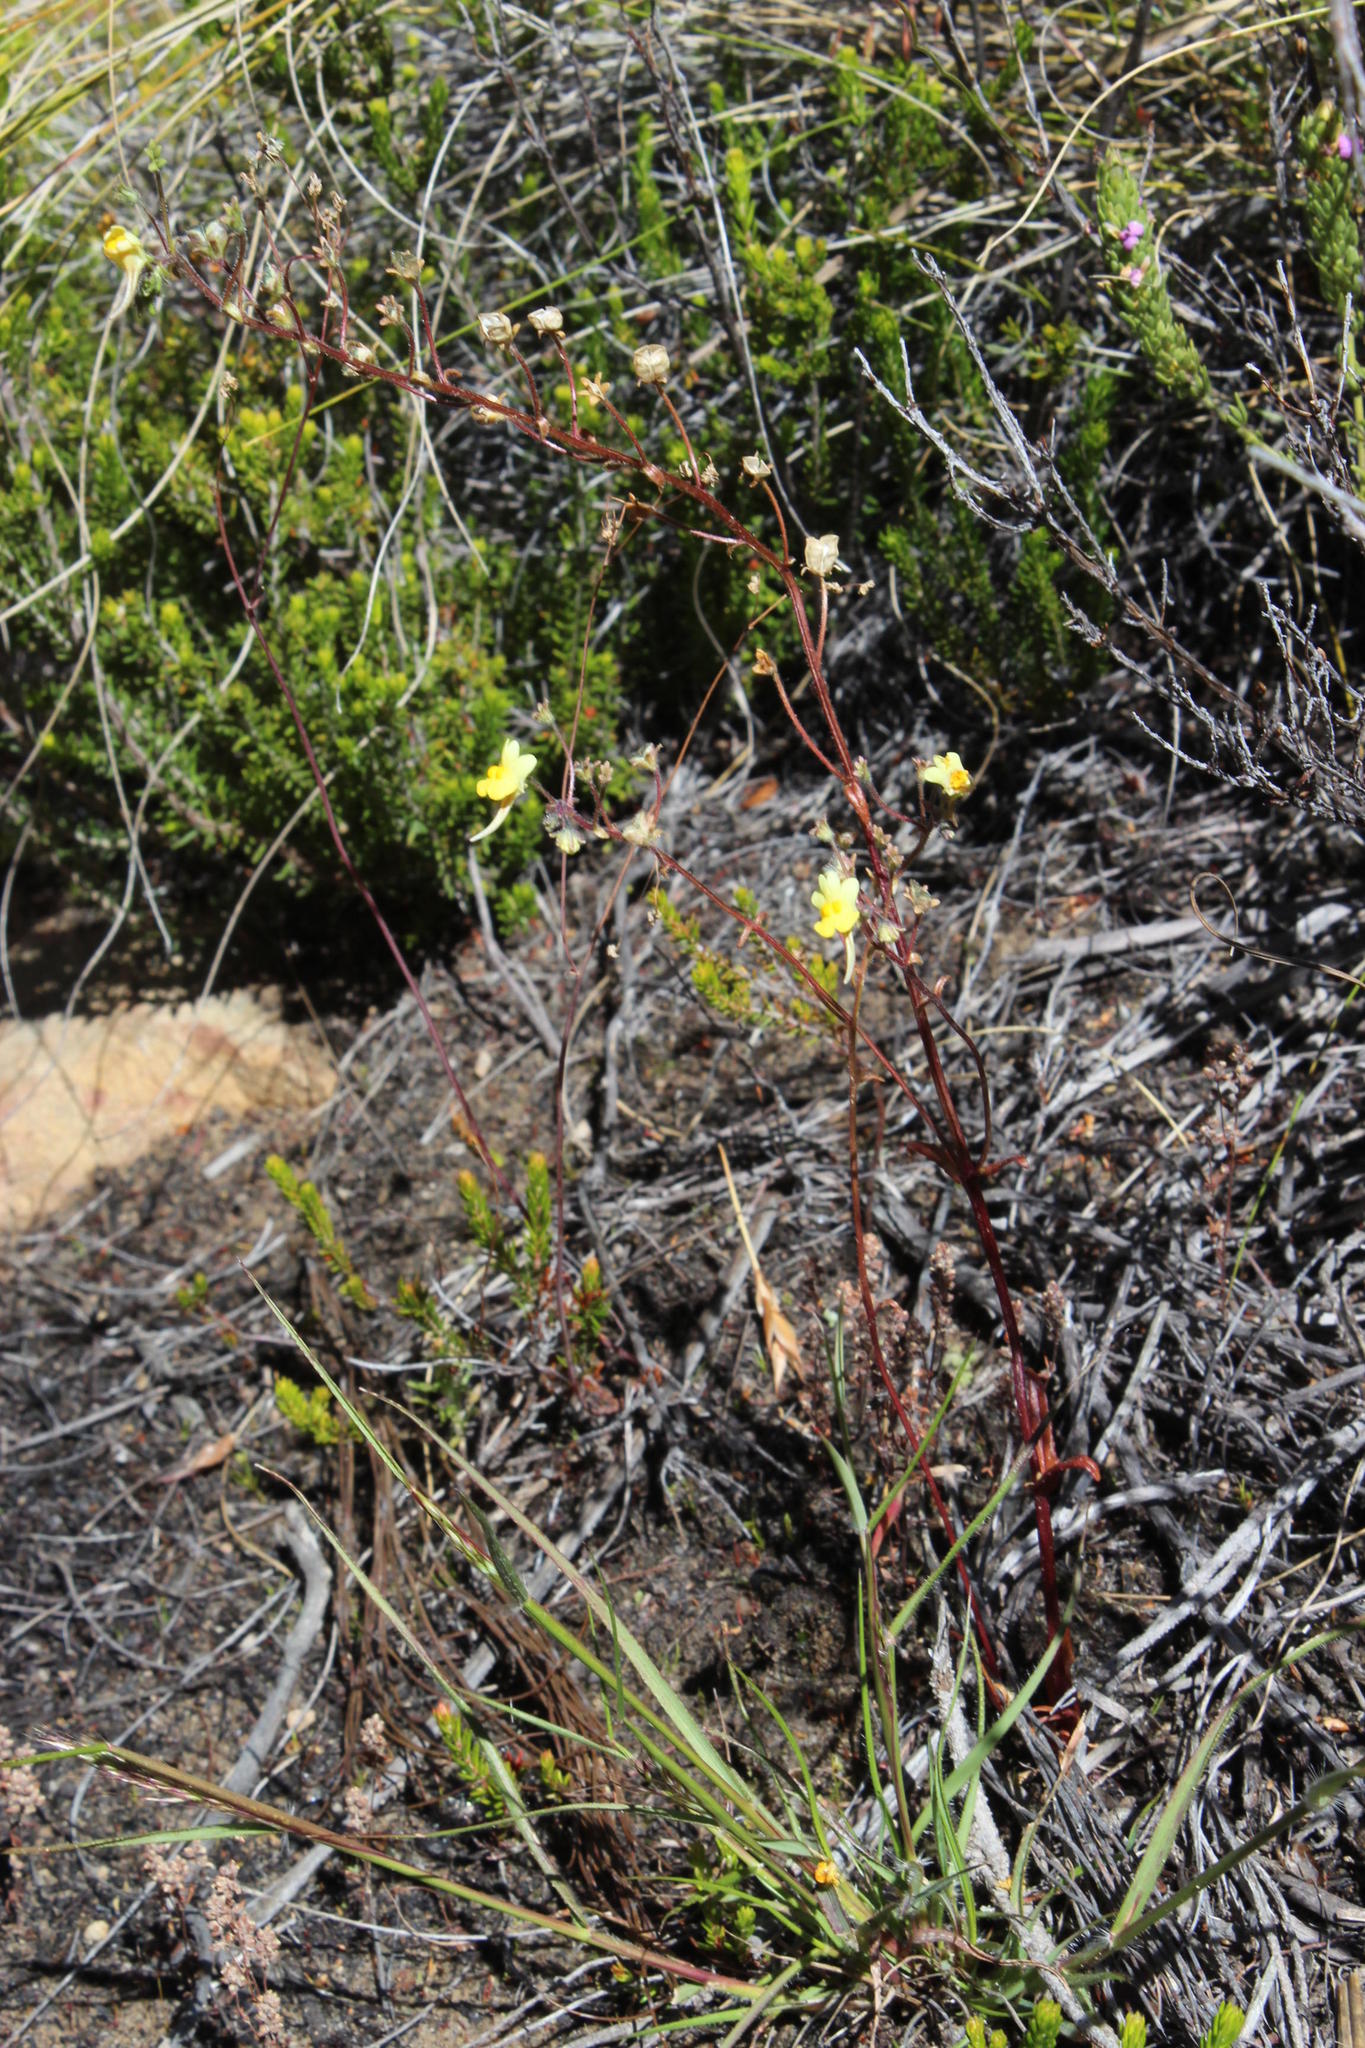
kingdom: Plantae
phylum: Tracheophyta
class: Magnoliopsida
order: Lamiales
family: Scrophulariaceae
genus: Nemesia
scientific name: Nemesia affinis
